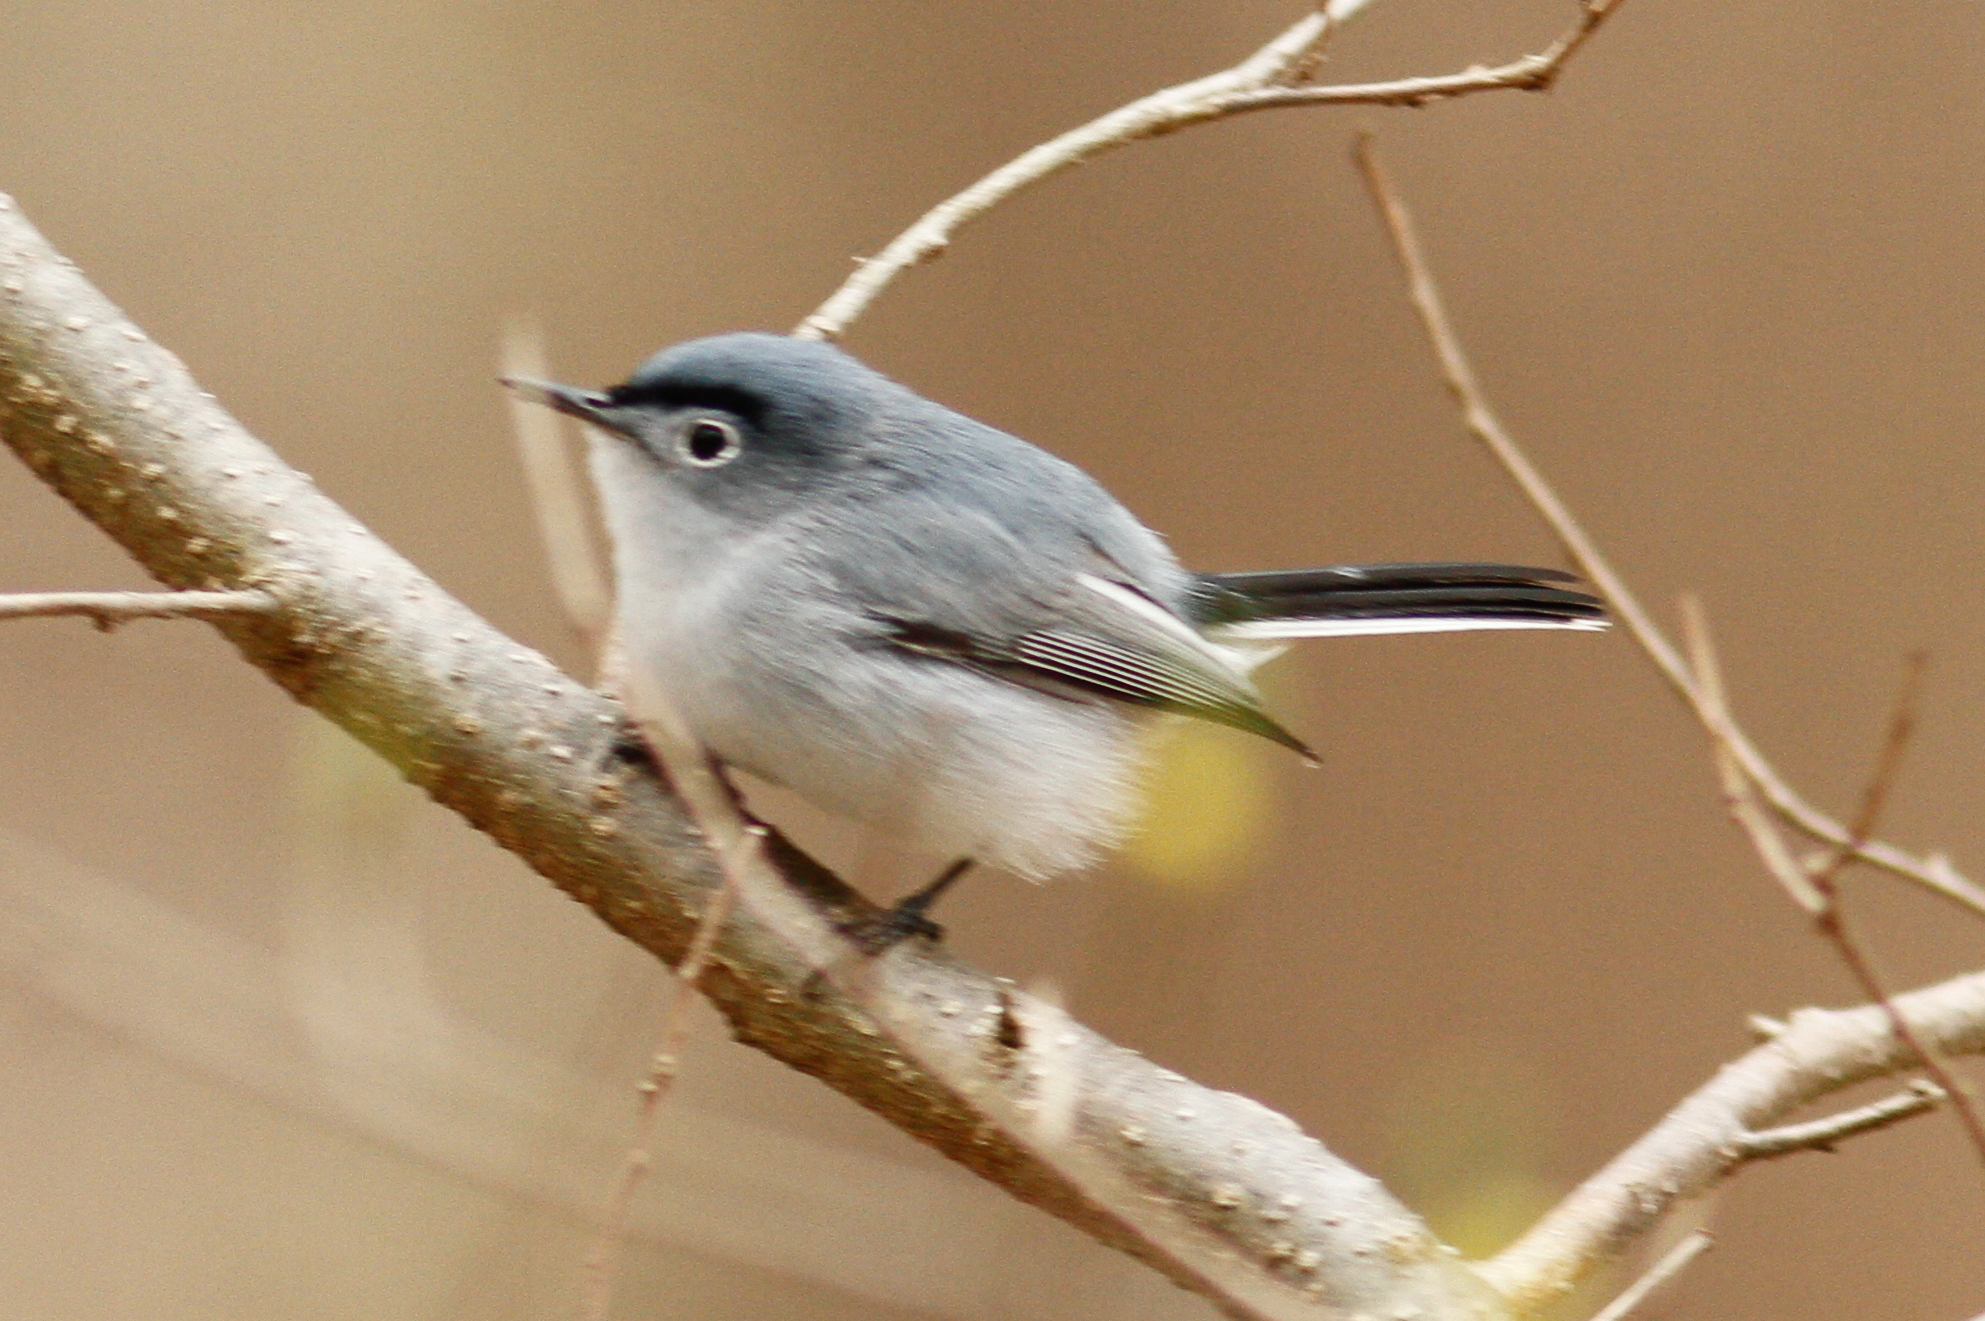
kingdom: Animalia
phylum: Chordata
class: Aves
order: Passeriformes
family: Polioptilidae
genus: Polioptila
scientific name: Polioptila caerulea
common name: Blue-gray gnatcatcher
